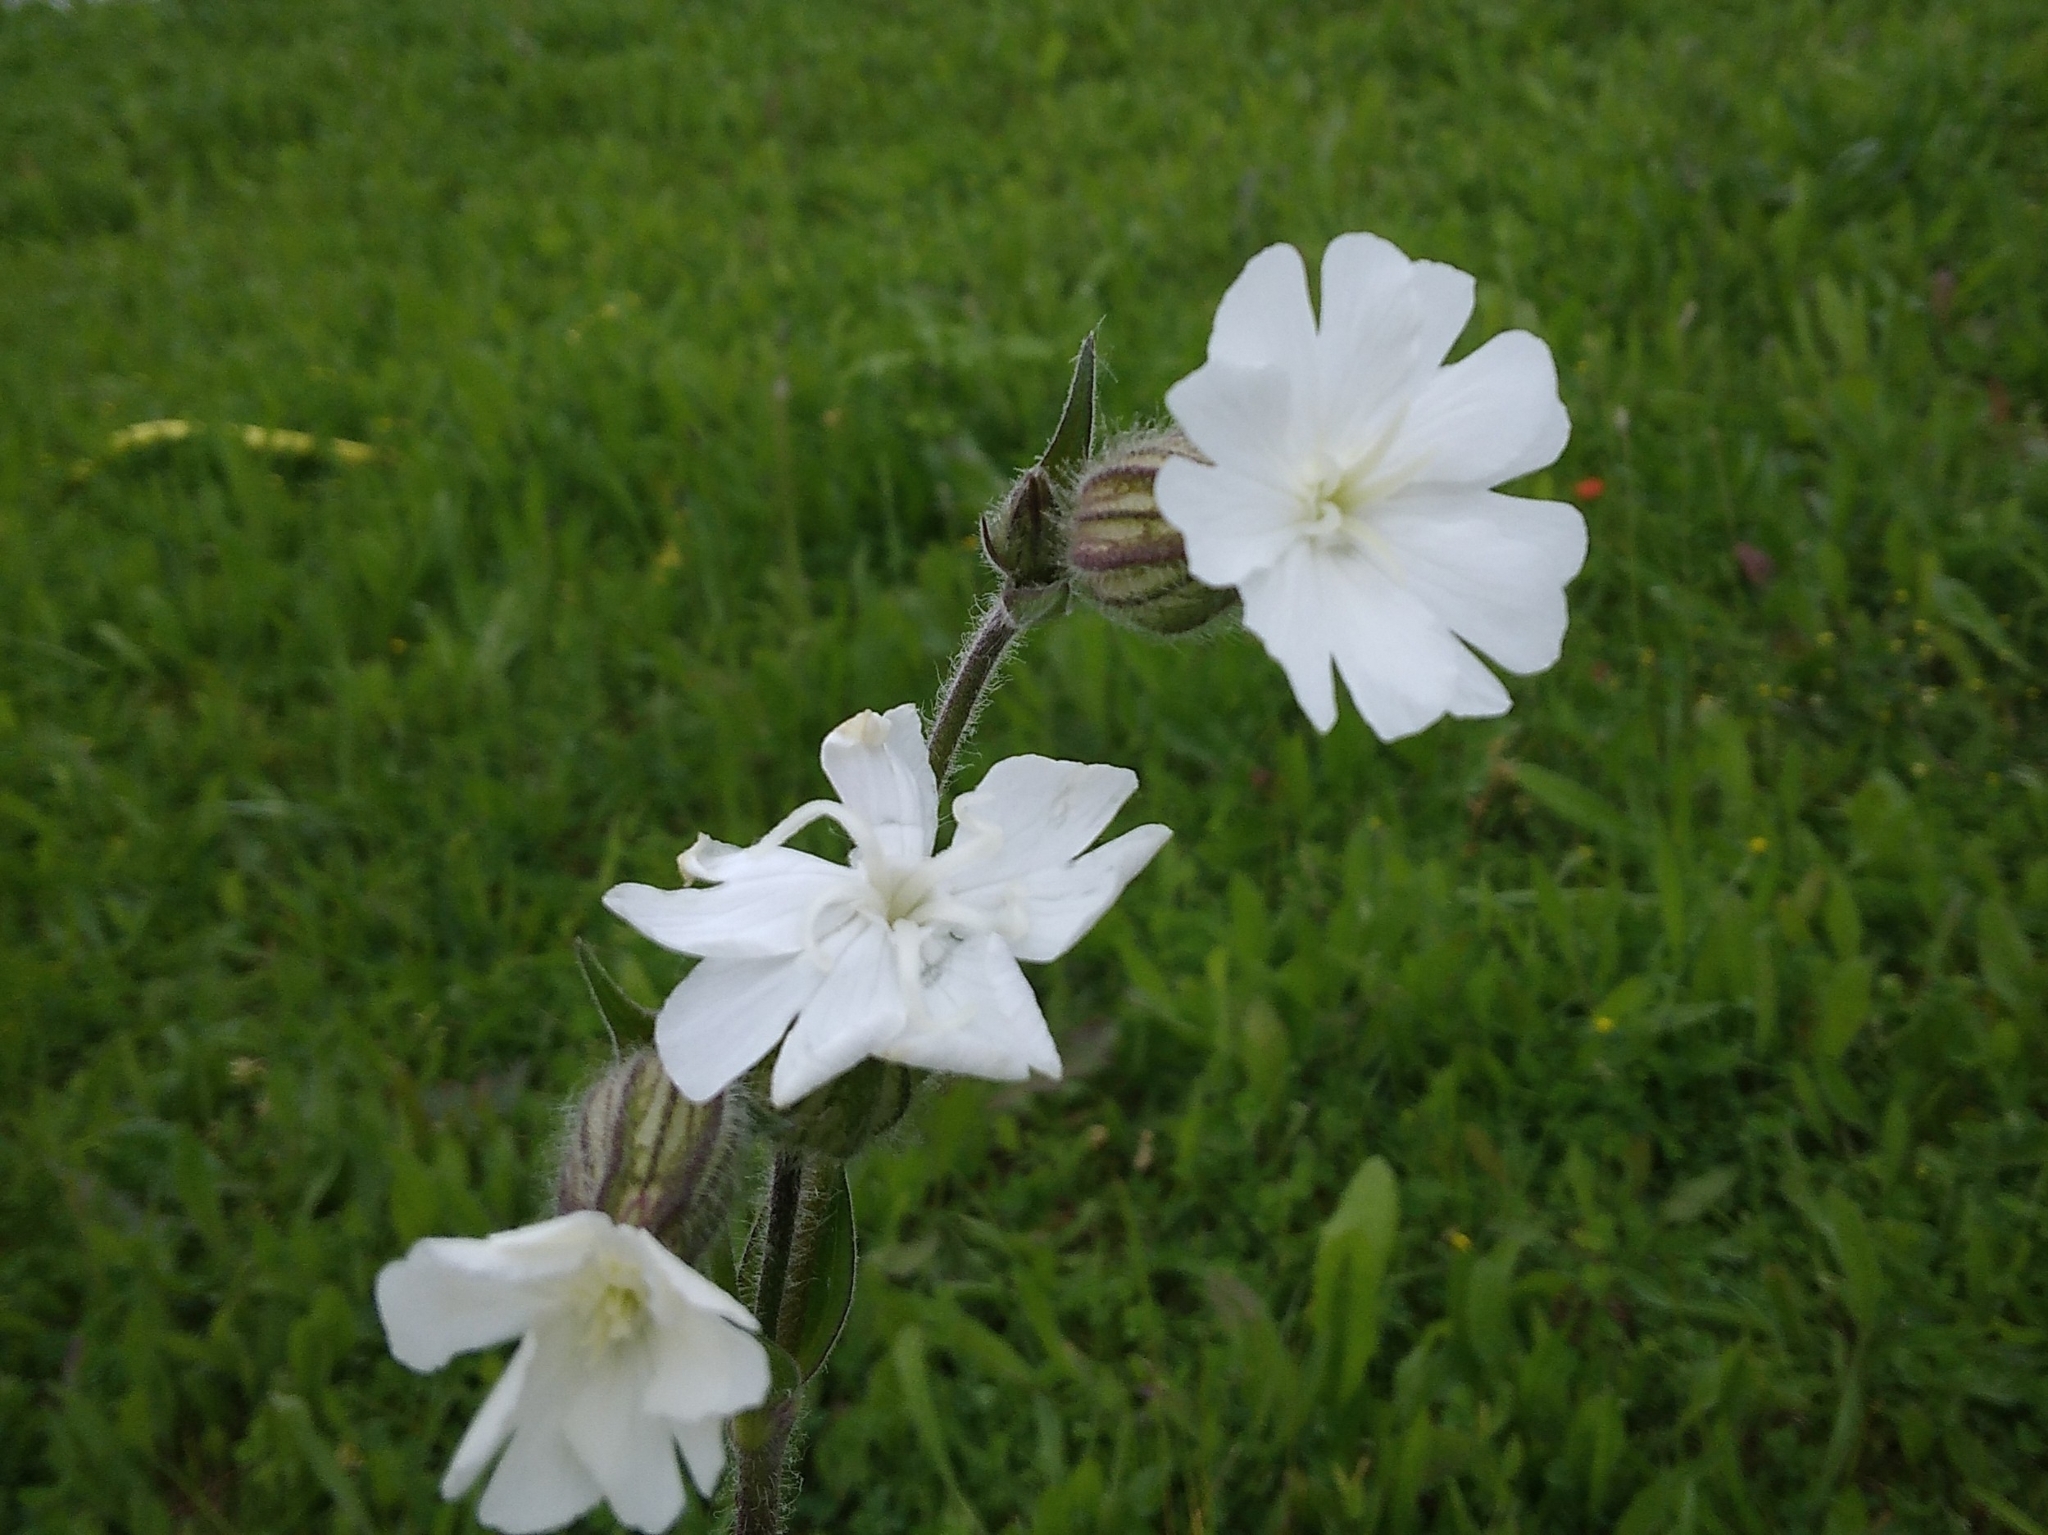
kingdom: Plantae
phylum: Tracheophyta
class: Magnoliopsida
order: Caryophyllales
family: Caryophyllaceae
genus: Silene
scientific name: Silene latifolia
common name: White campion
